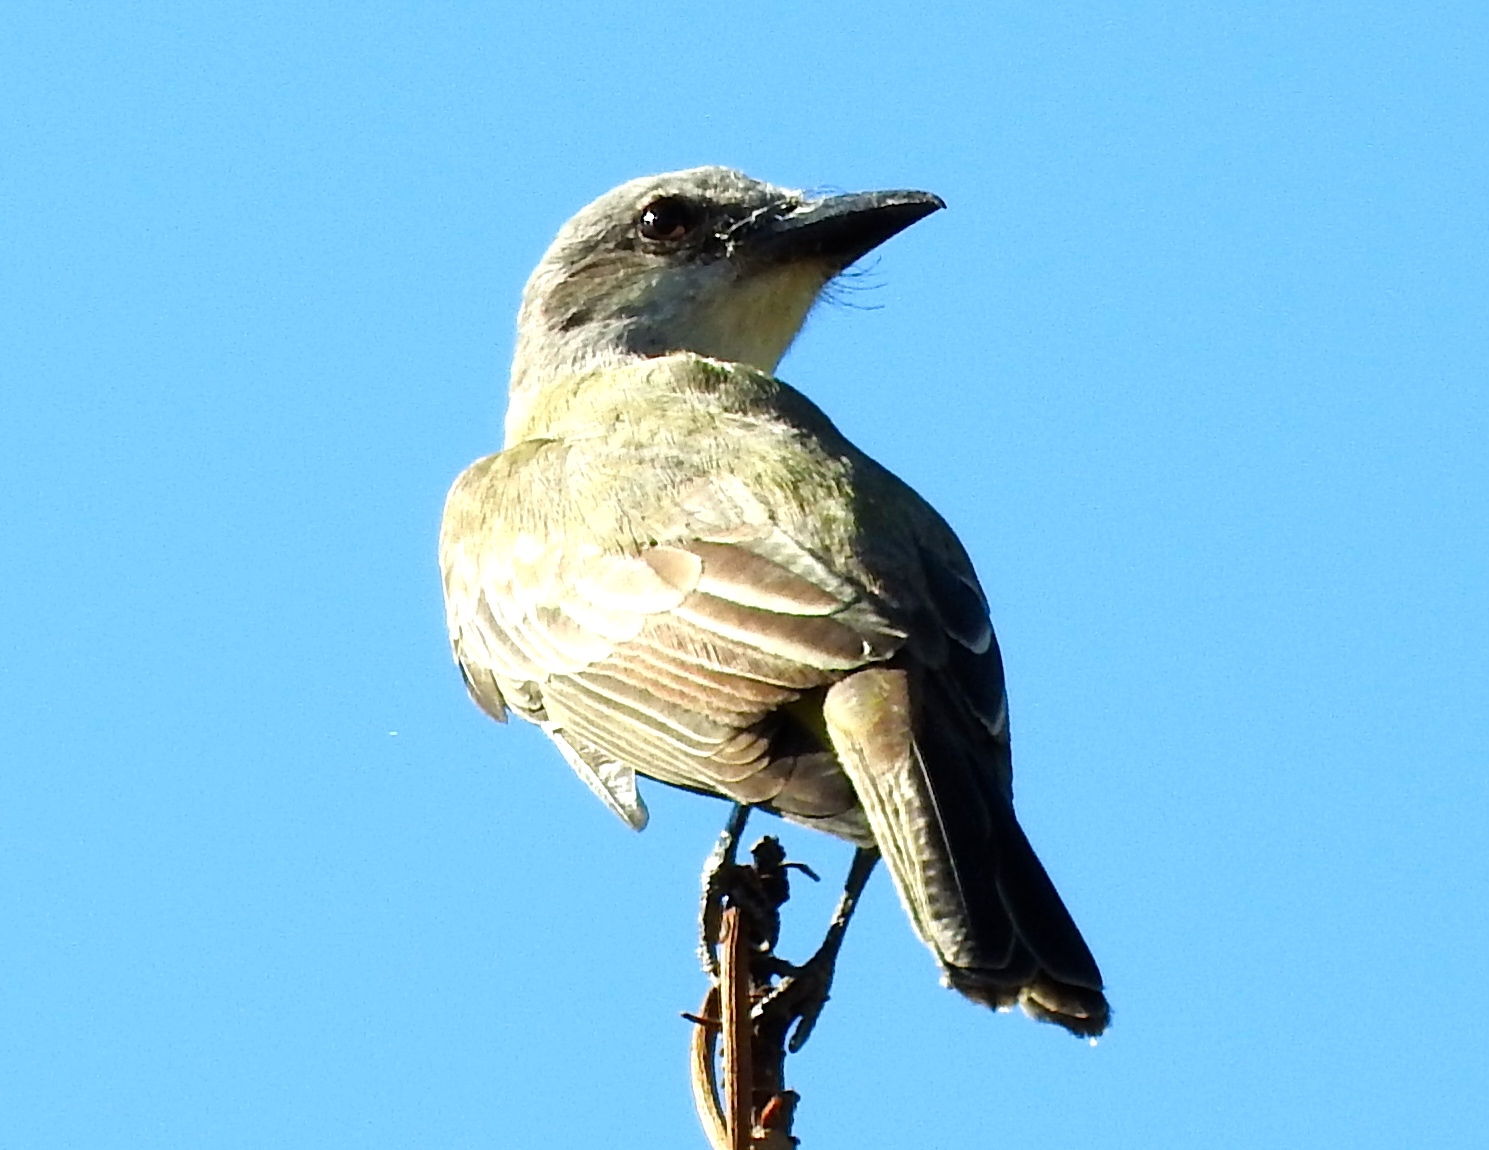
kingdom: Animalia
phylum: Chordata
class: Aves
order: Passeriformes
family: Tyrannidae
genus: Tyrannus
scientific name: Tyrannus melancholicus
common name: Tropical kingbird
